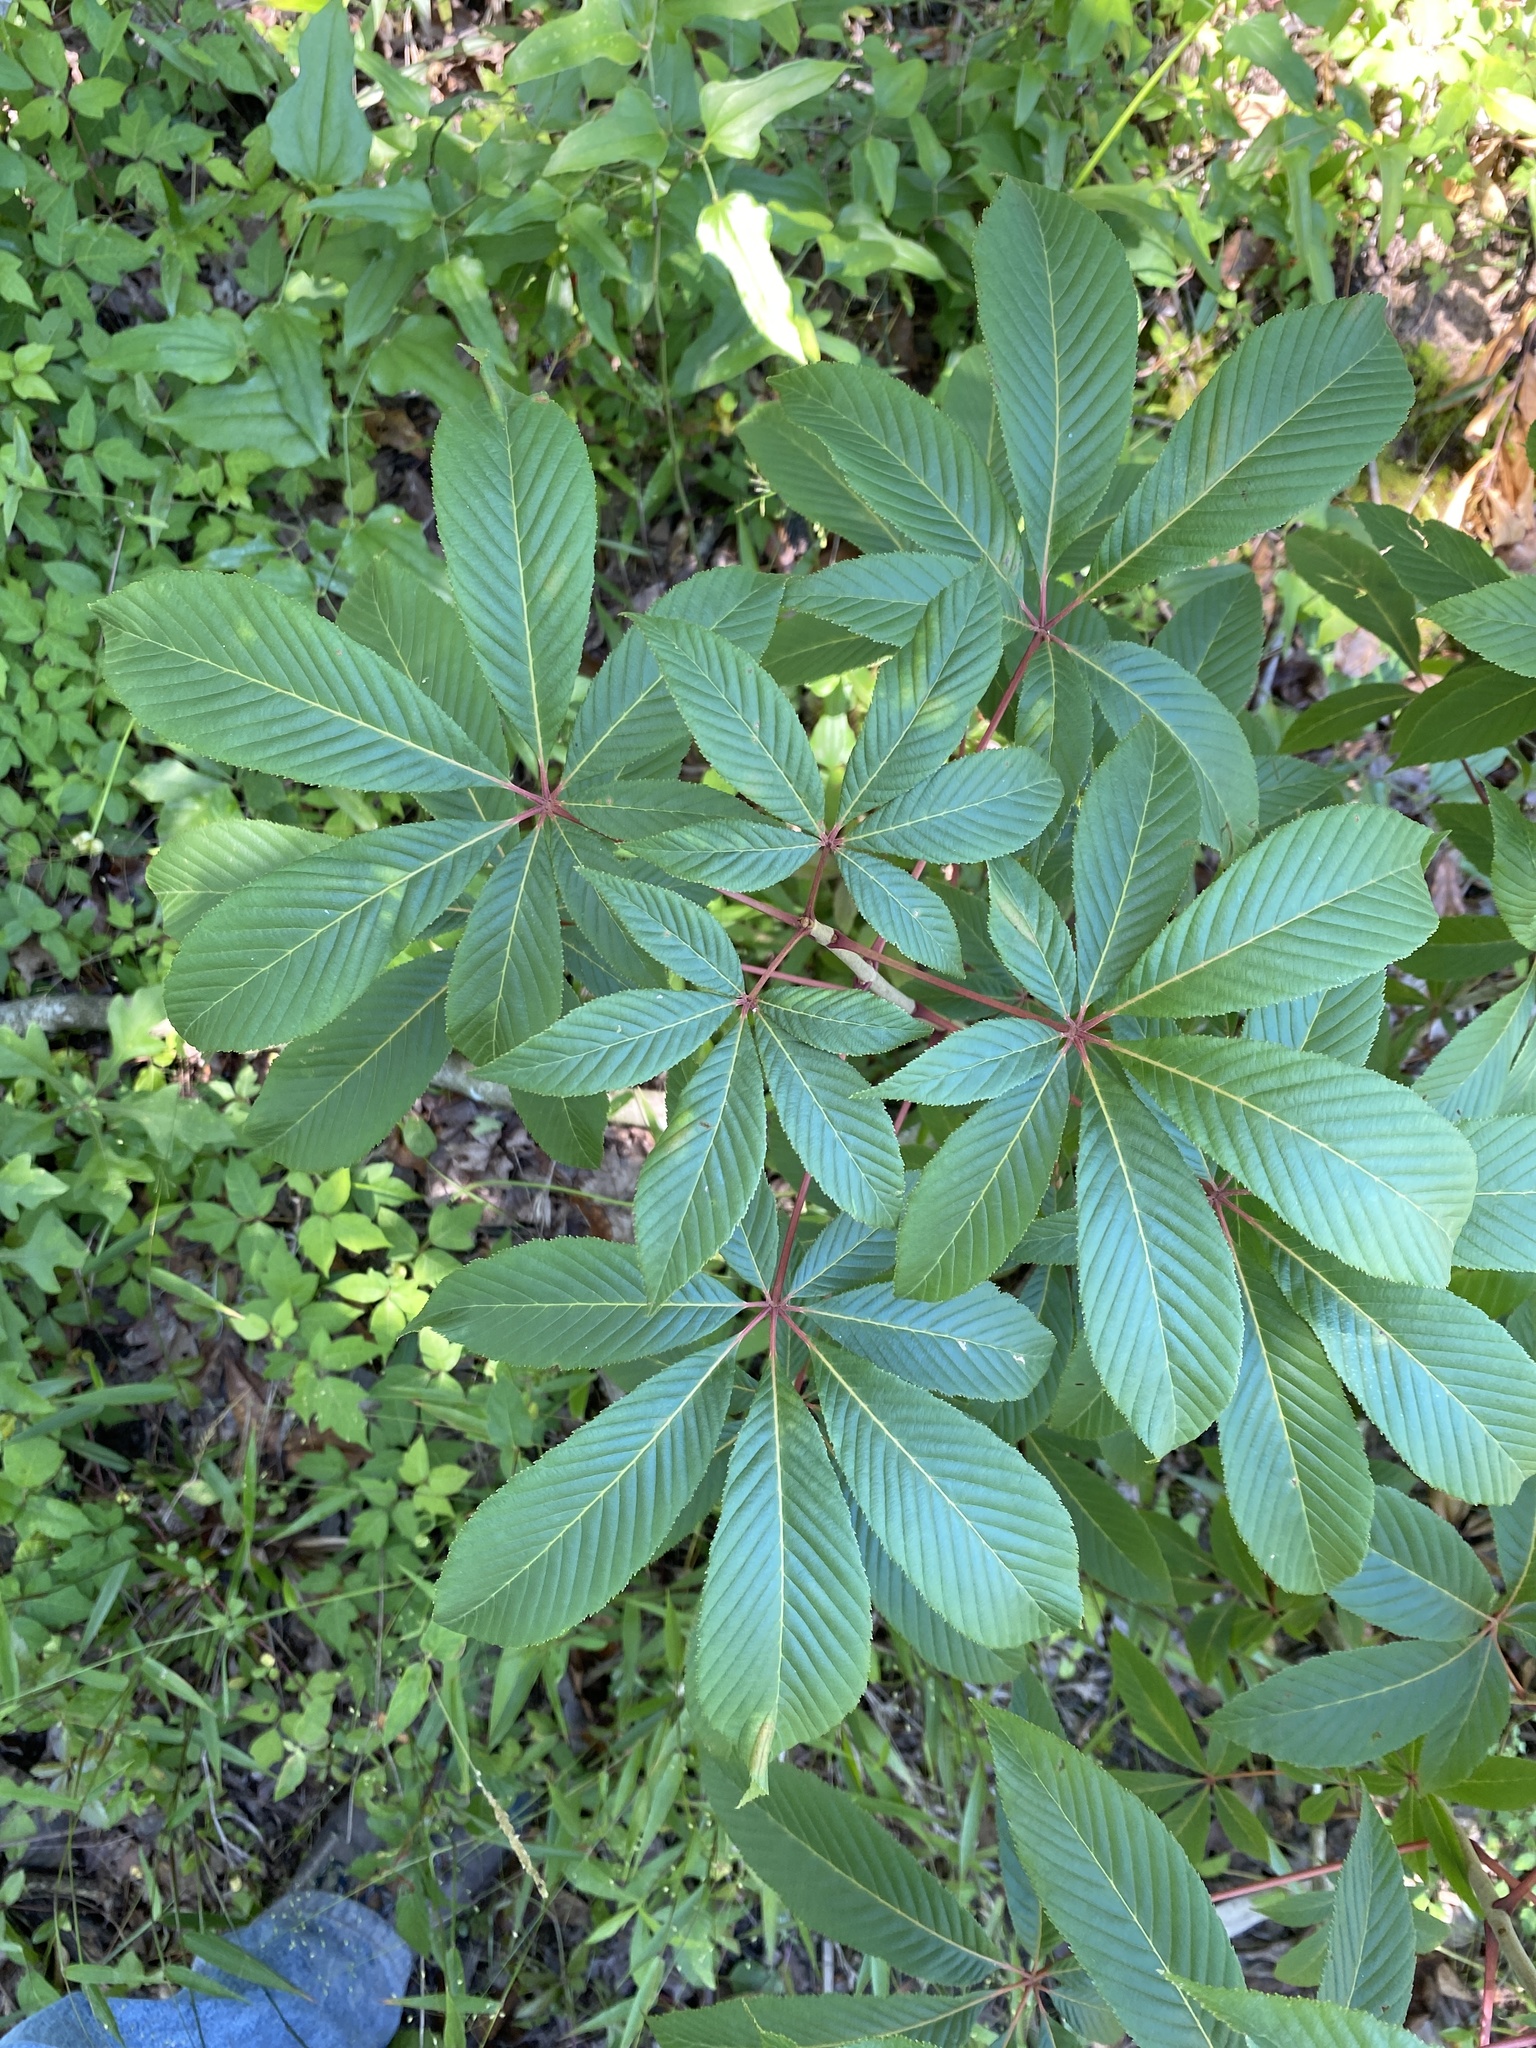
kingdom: Plantae
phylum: Tracheophyta
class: Magnoliopsida
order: Sapindales
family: Sapindaceae
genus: Aesculus
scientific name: Aesculus pavia
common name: Red buckeye
